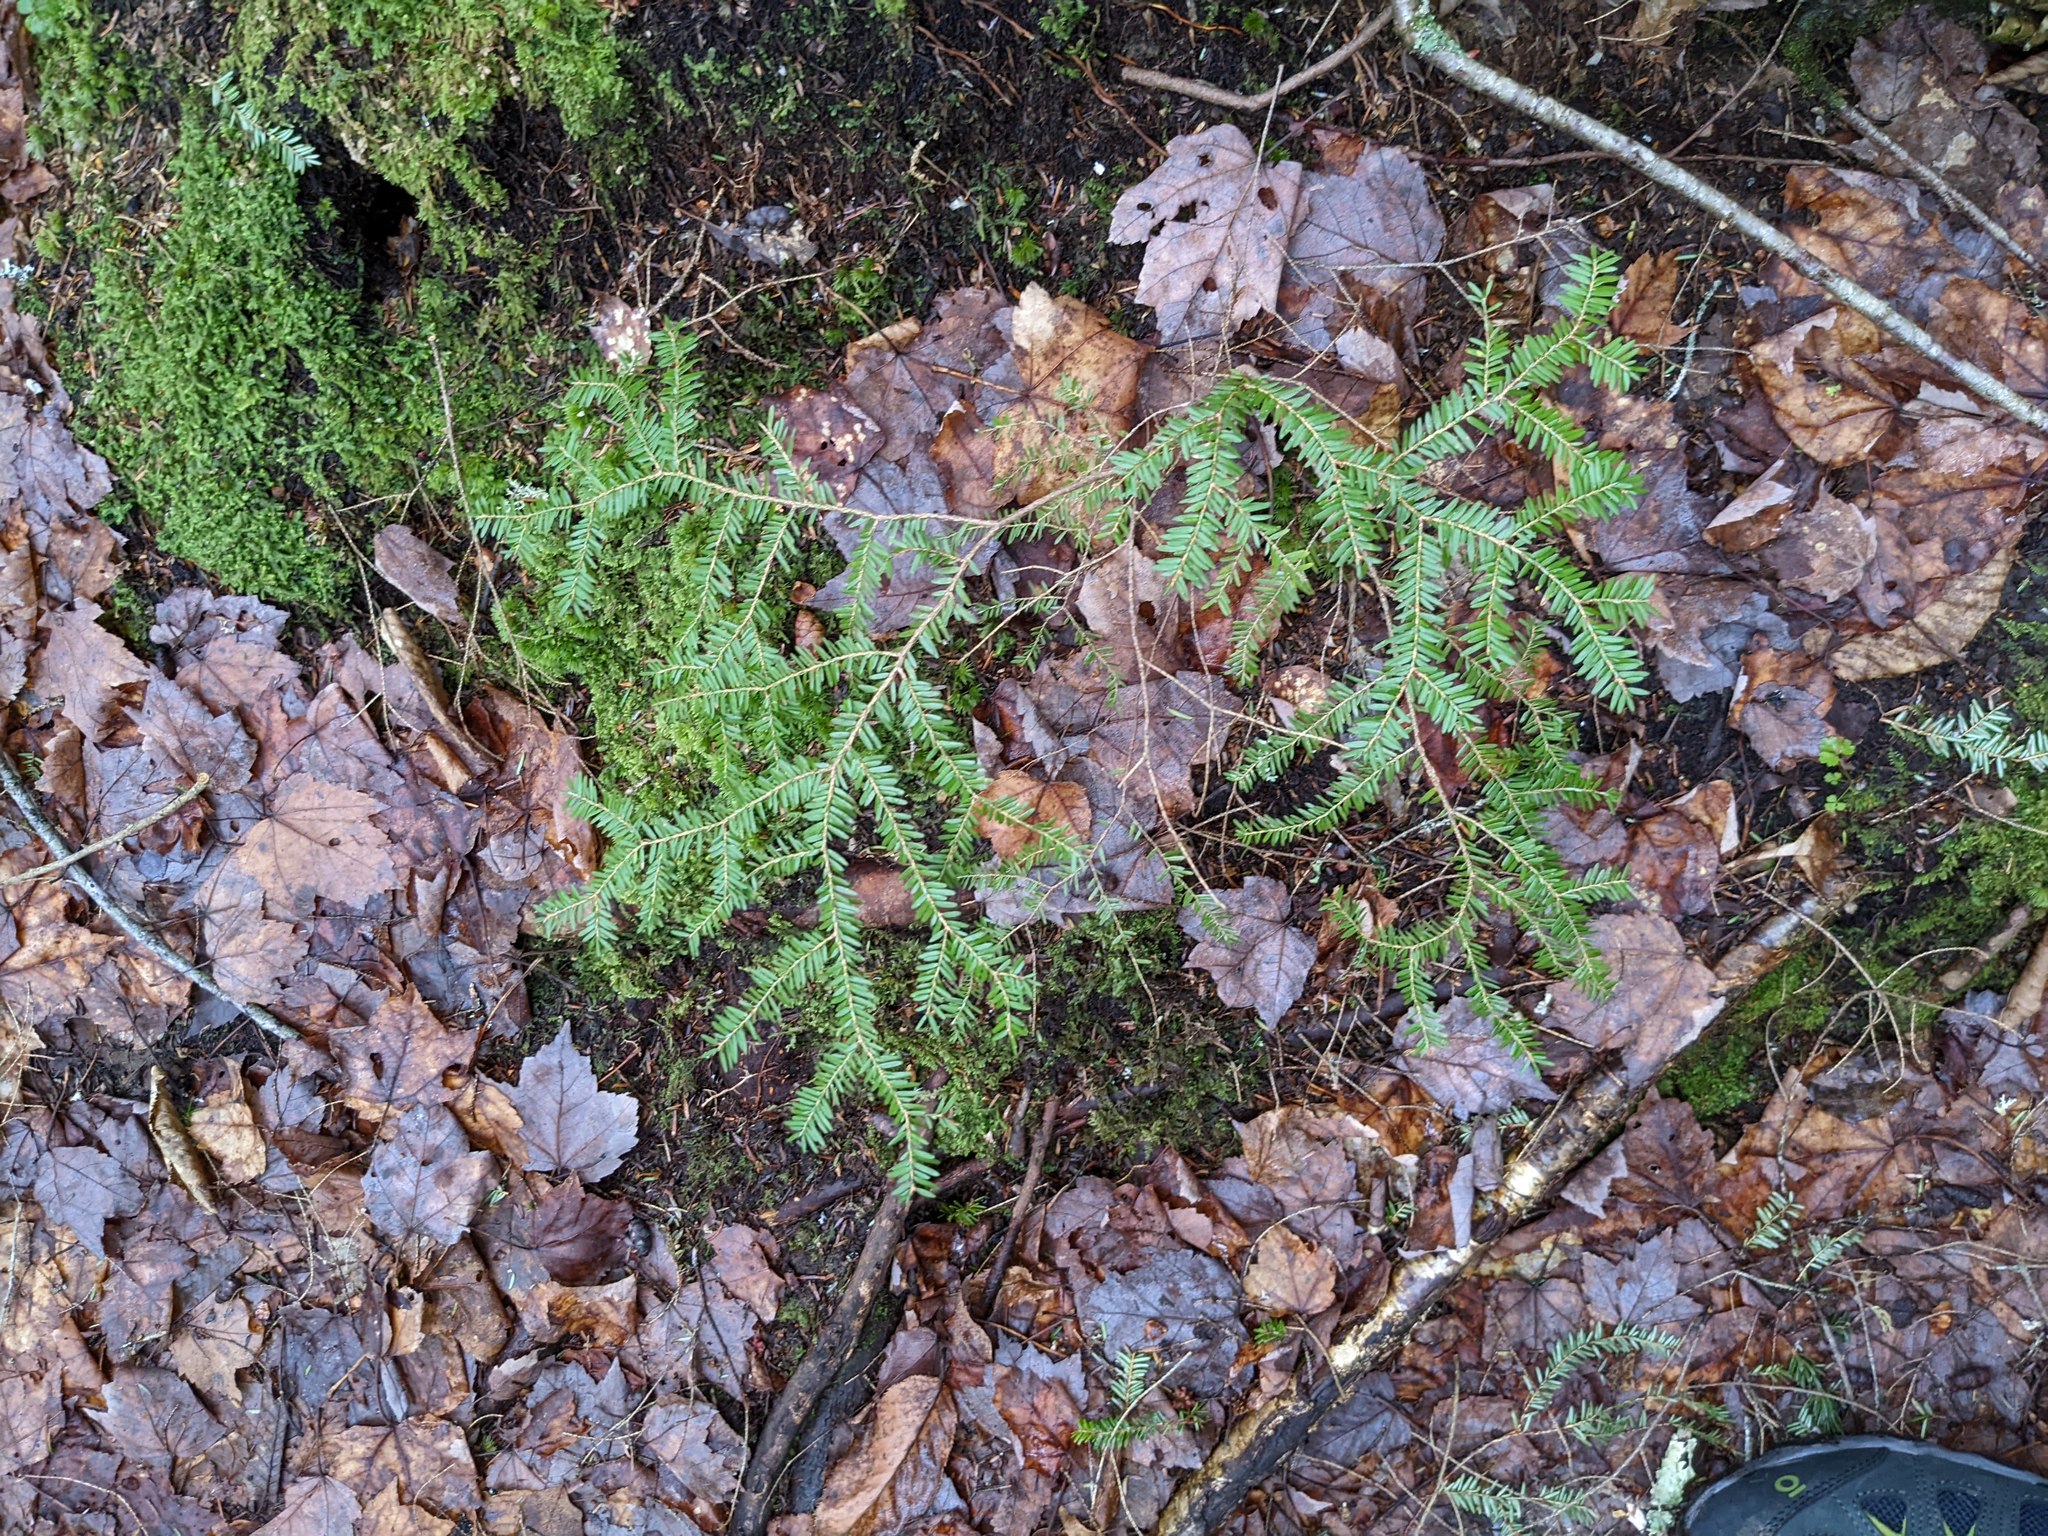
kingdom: Plantae
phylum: Tracheophyta
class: Pinopsida
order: Pinales
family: Pinaceae
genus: Tsuga
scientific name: Tsuga canadensis
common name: Eastern hemlock
